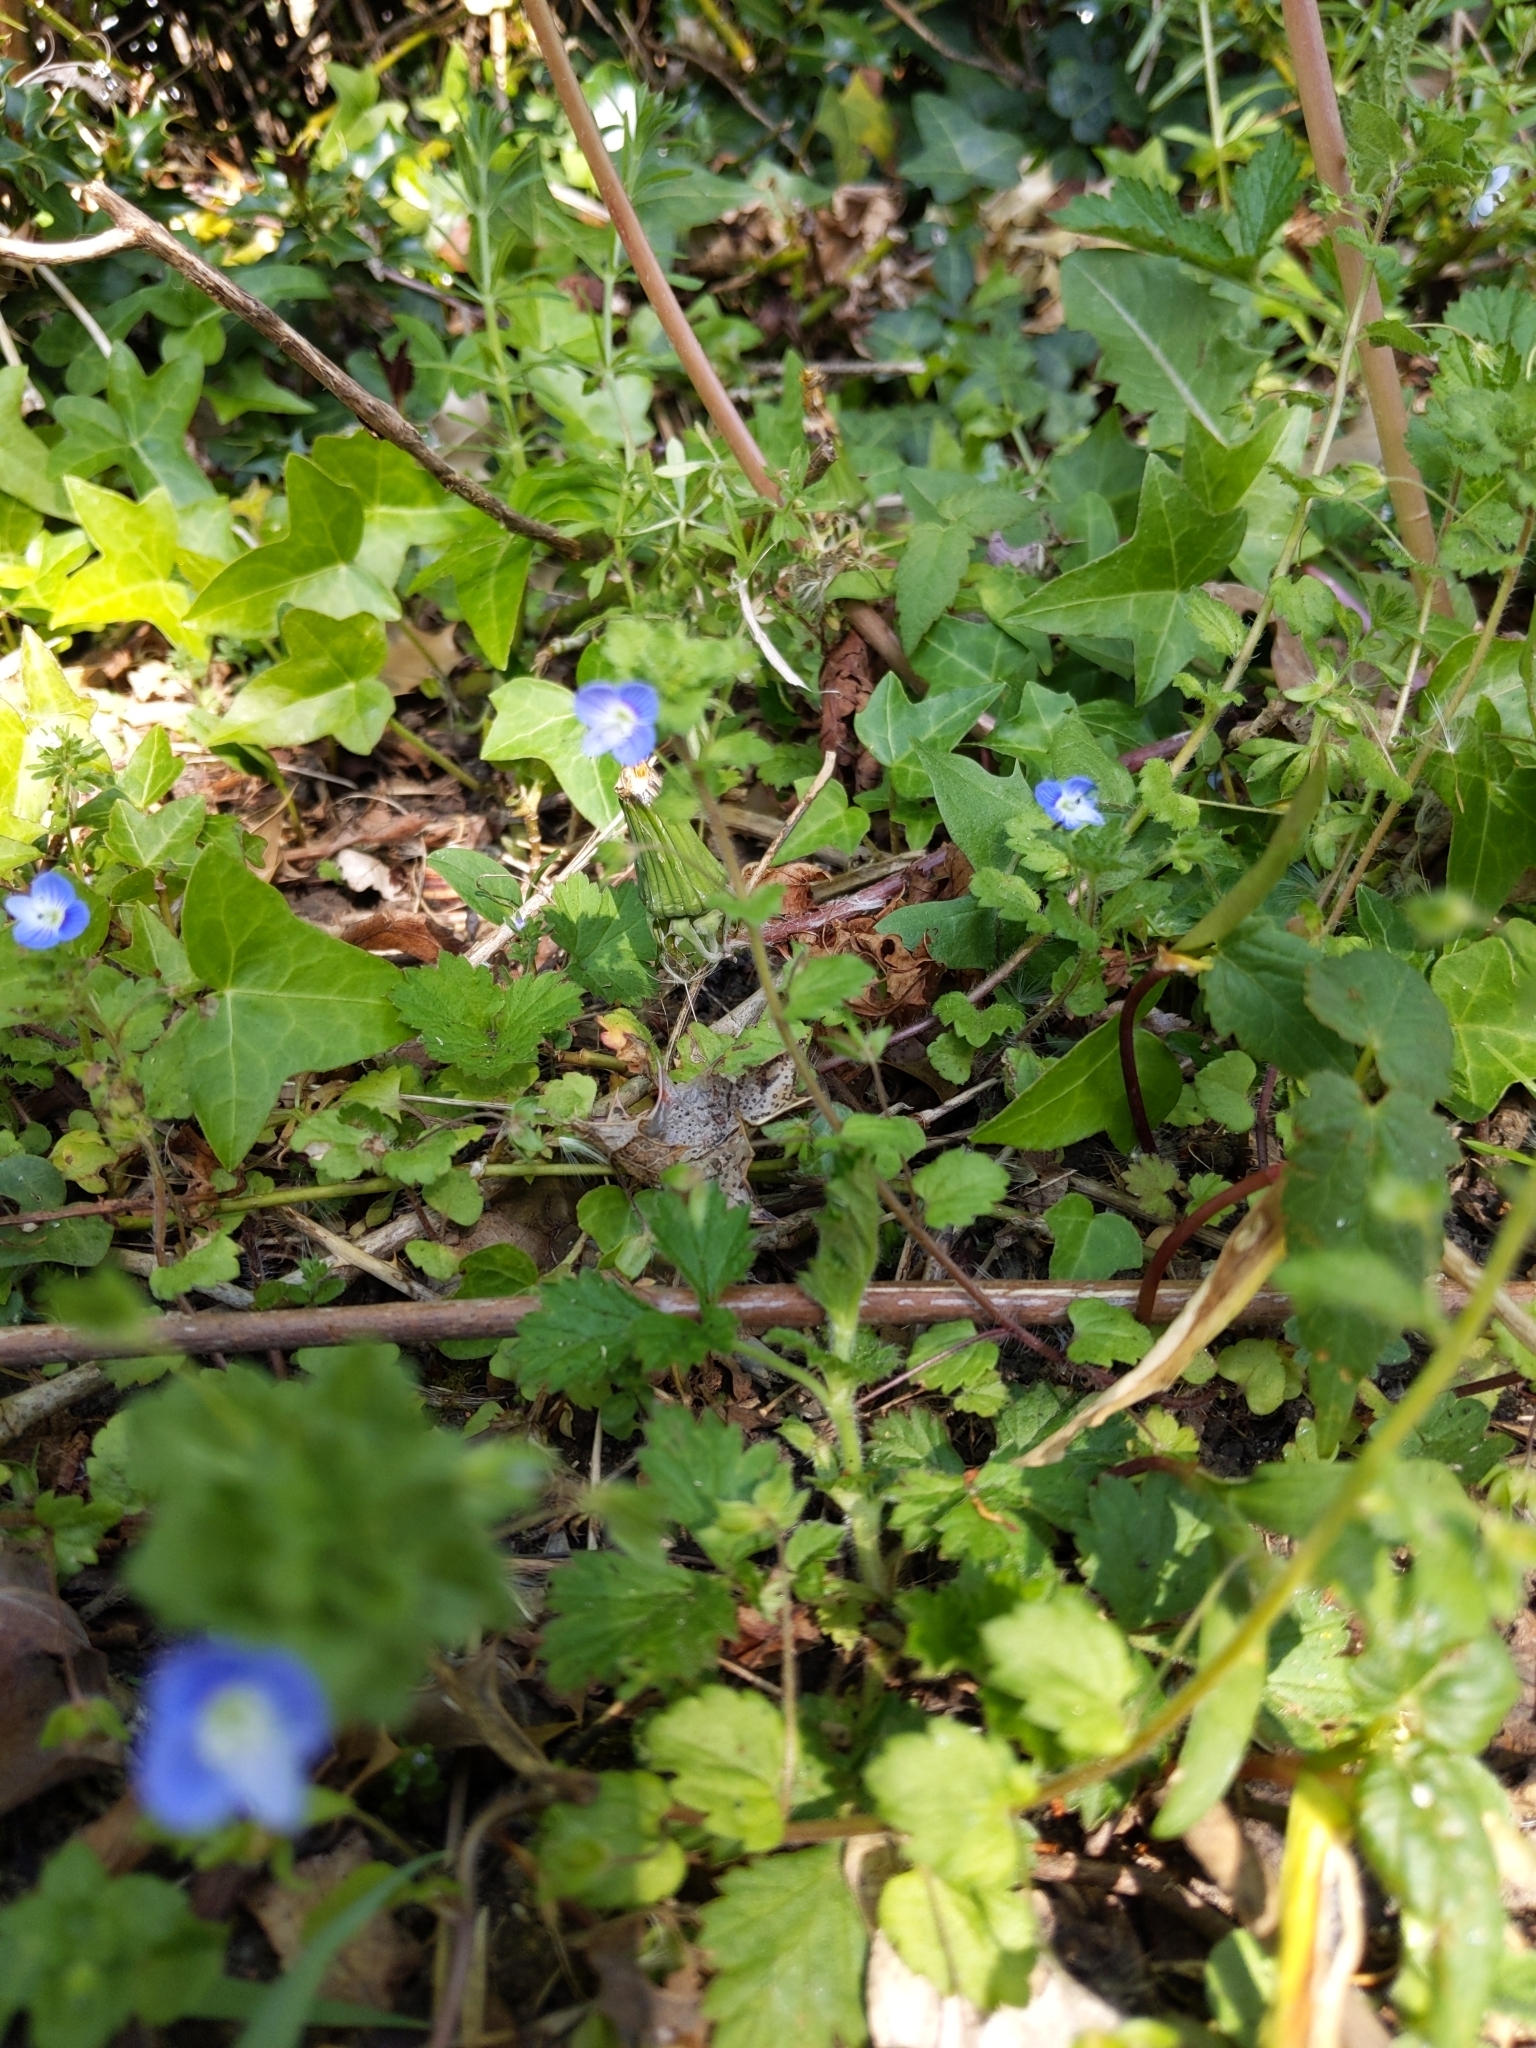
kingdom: Plantae
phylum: Tracheophyta
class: Magnoliopsida
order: Lamiales
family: Plantaginaceae
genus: Veronica
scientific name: Veronica persica
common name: Common field-speedwell
